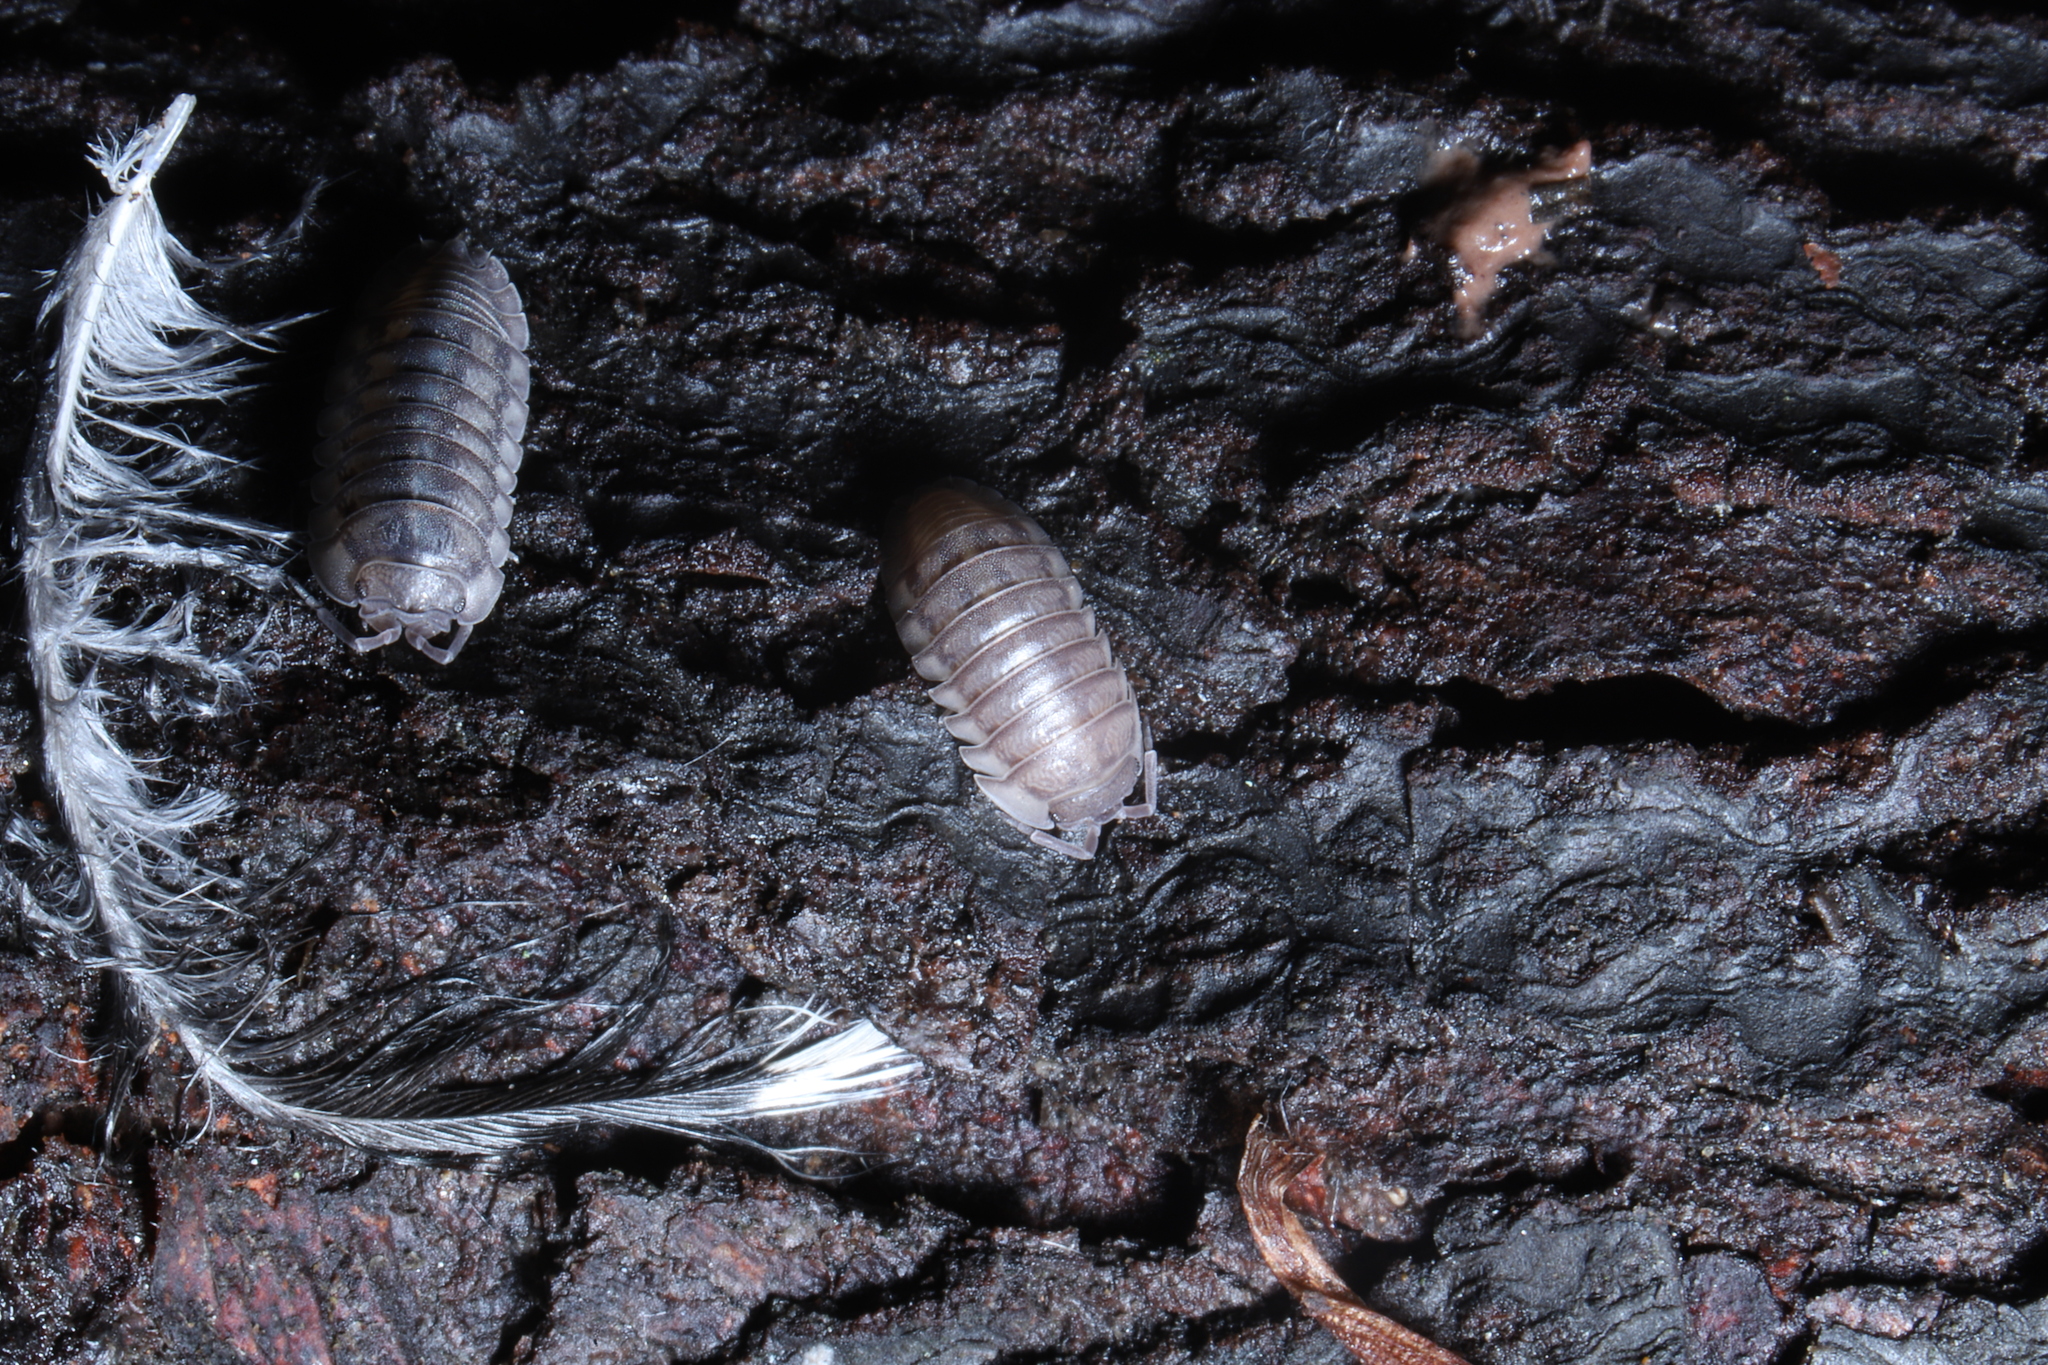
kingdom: Animalia
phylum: Arthropoda
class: Malacostraca
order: Isopoda
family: Armadillidiidae
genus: Armadillidium
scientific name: Armadillidium nasatum
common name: Isopod
